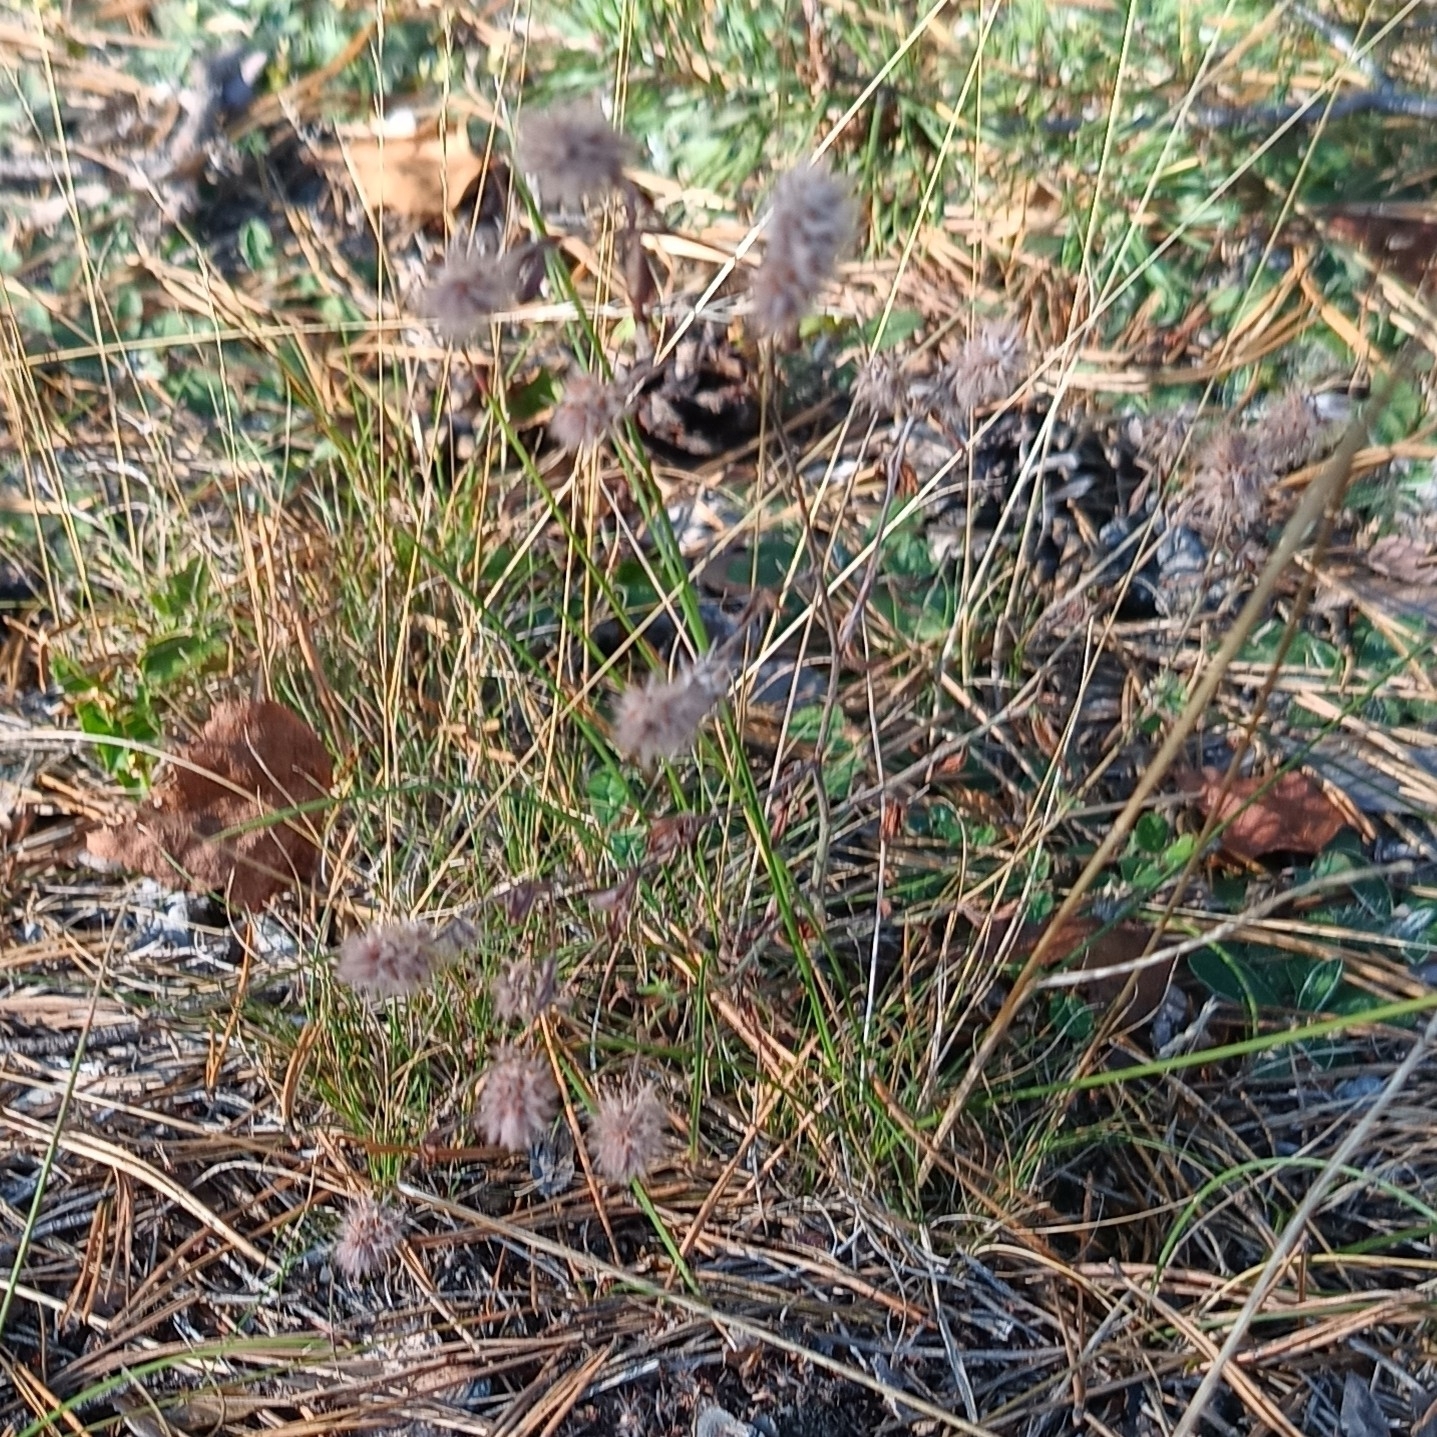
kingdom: Plantae
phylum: Tracheophyta
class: Magnoliopsida
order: Fabales
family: Fabaceae
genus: Trifolium
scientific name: Trifolium arvense
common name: Hare's-foot clover
